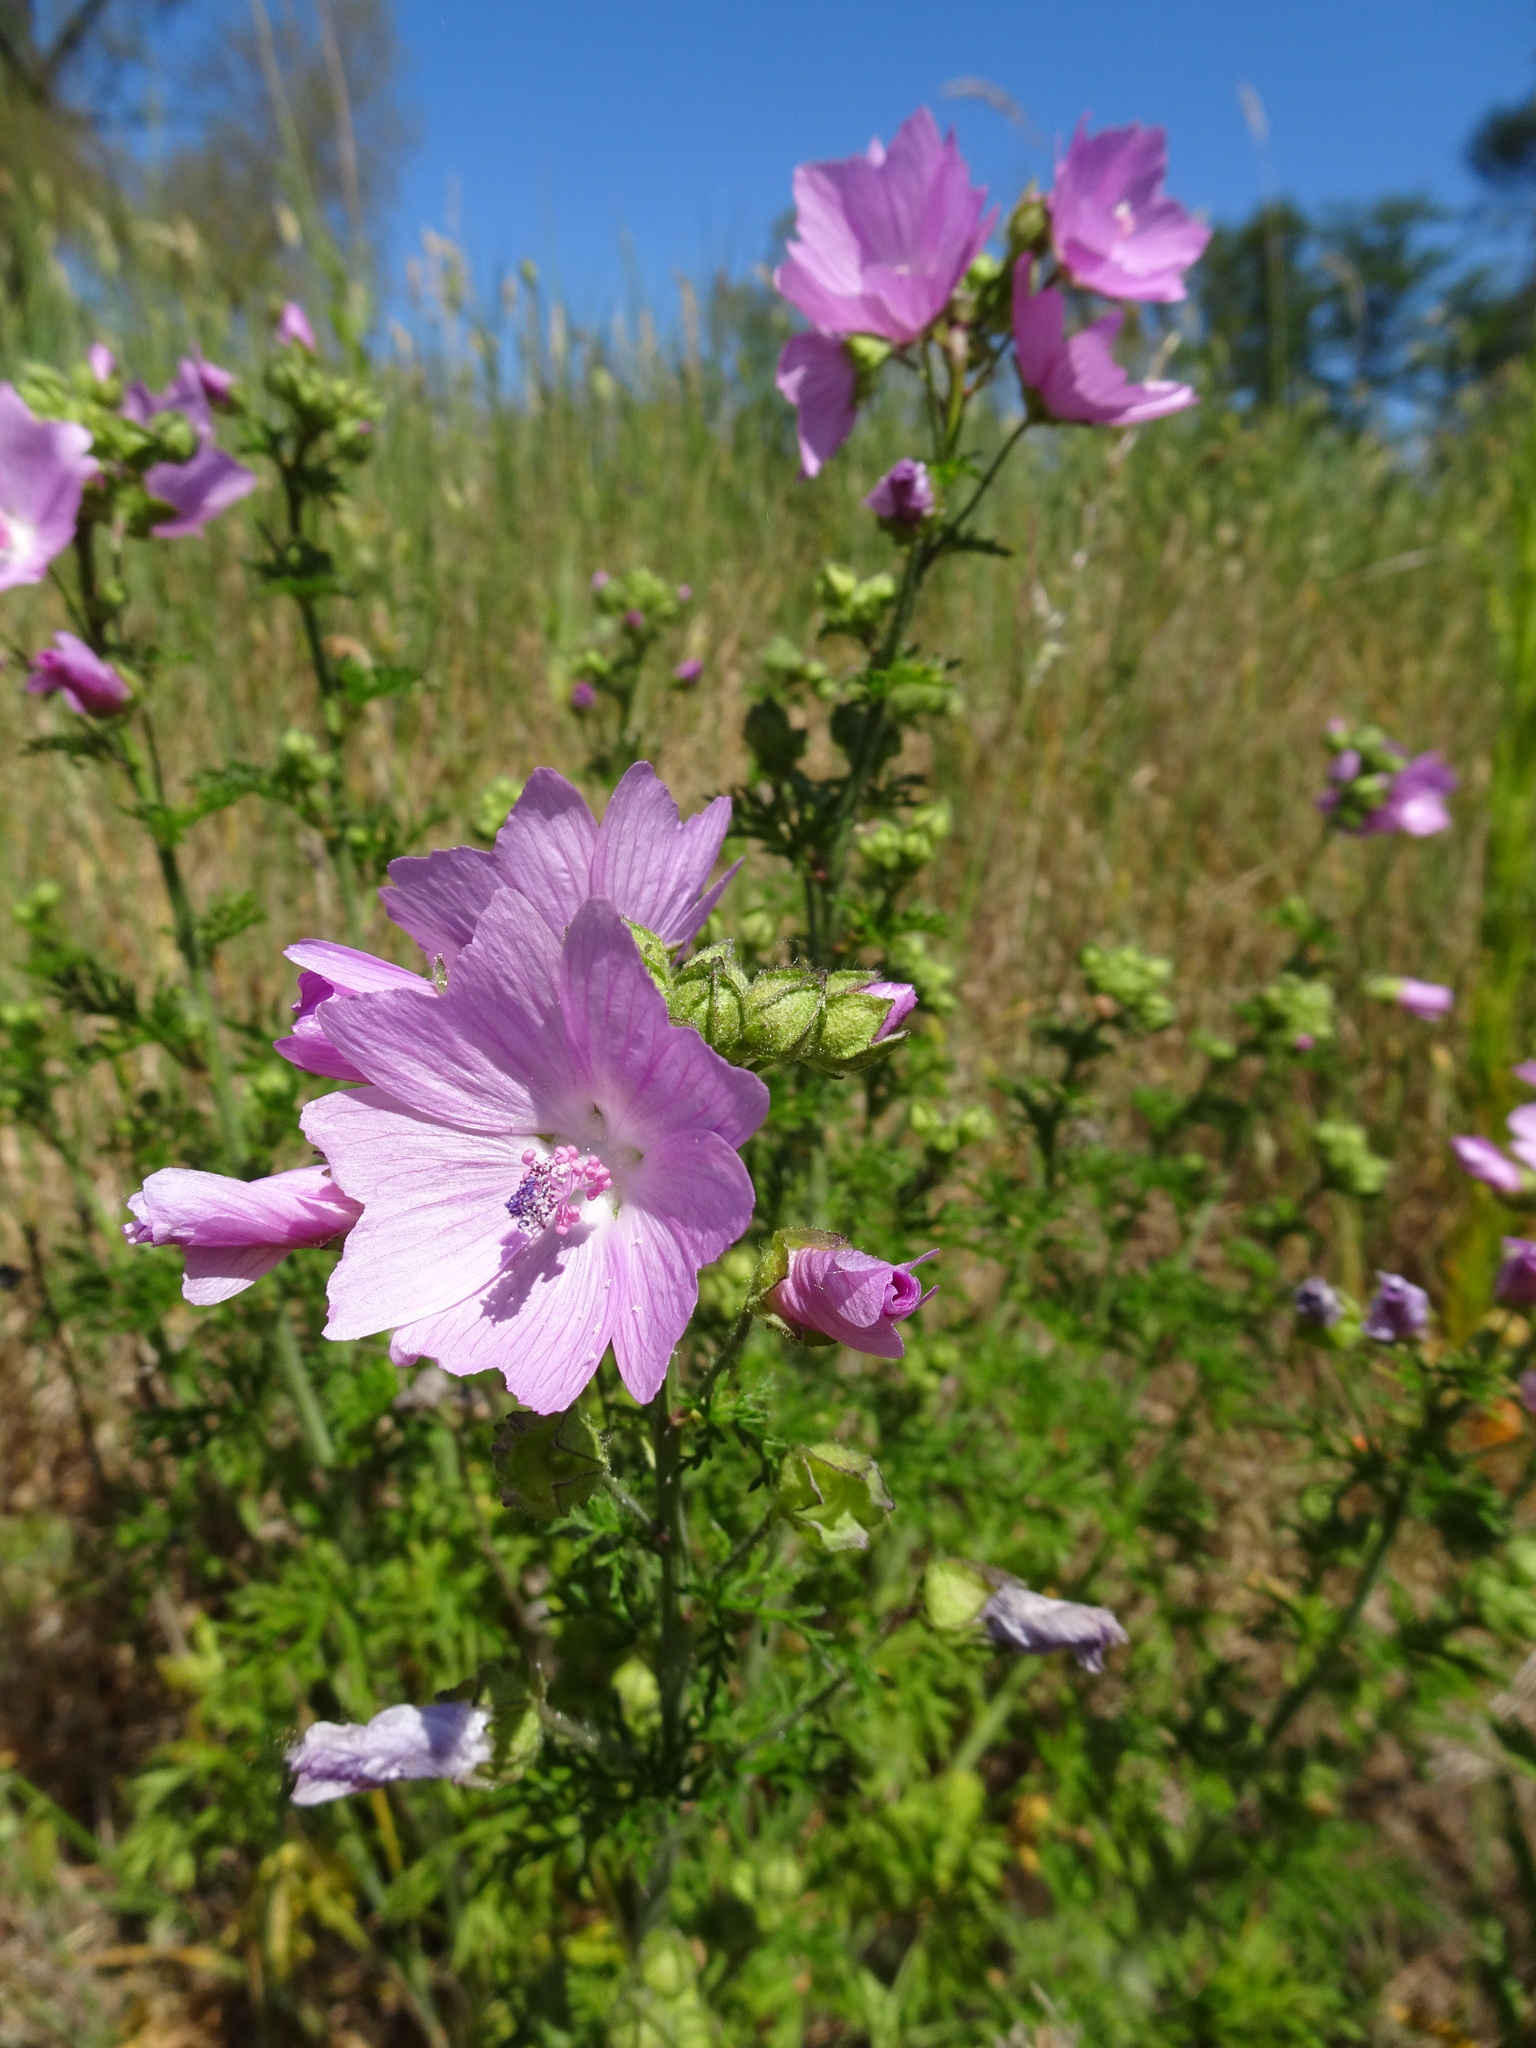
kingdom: Plantae
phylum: Tracheophyta
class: Magnoliopsida
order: Malvales
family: Malvaceae
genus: Malva
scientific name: Malva moschata
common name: Musk mallow
